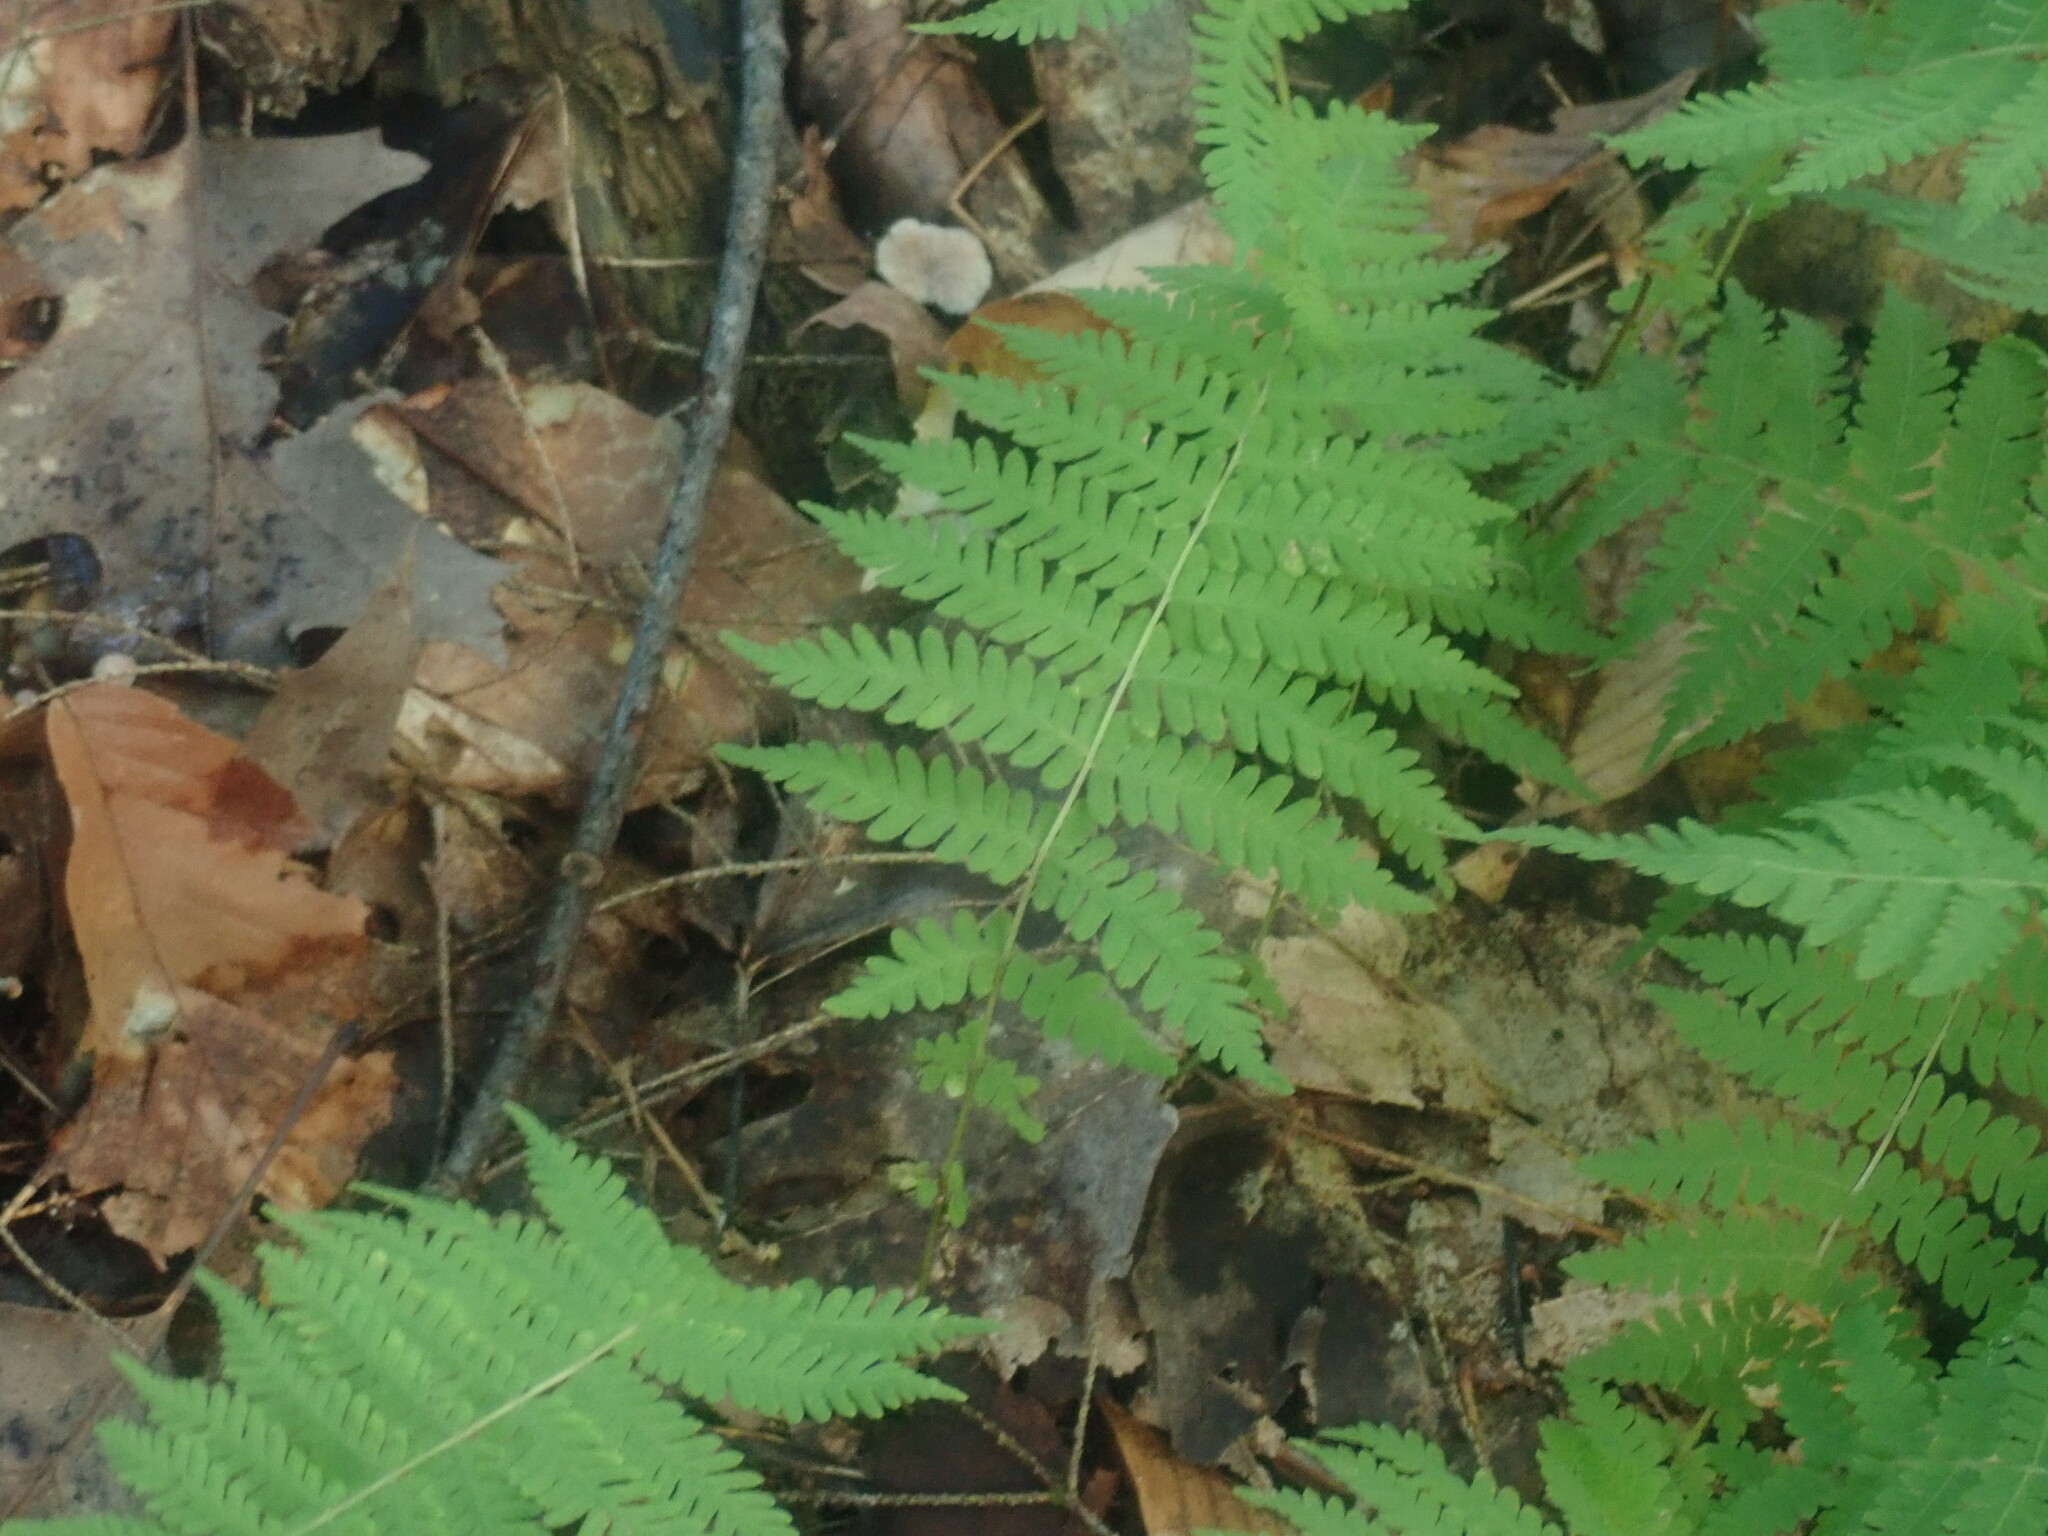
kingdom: Plantae
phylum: Tracheophyta
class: Polypodiopsida
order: Polypodiales
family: Thelypteridaceae
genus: Amauropelta
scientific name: Amauropelta noveboracensis
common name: New york fern
